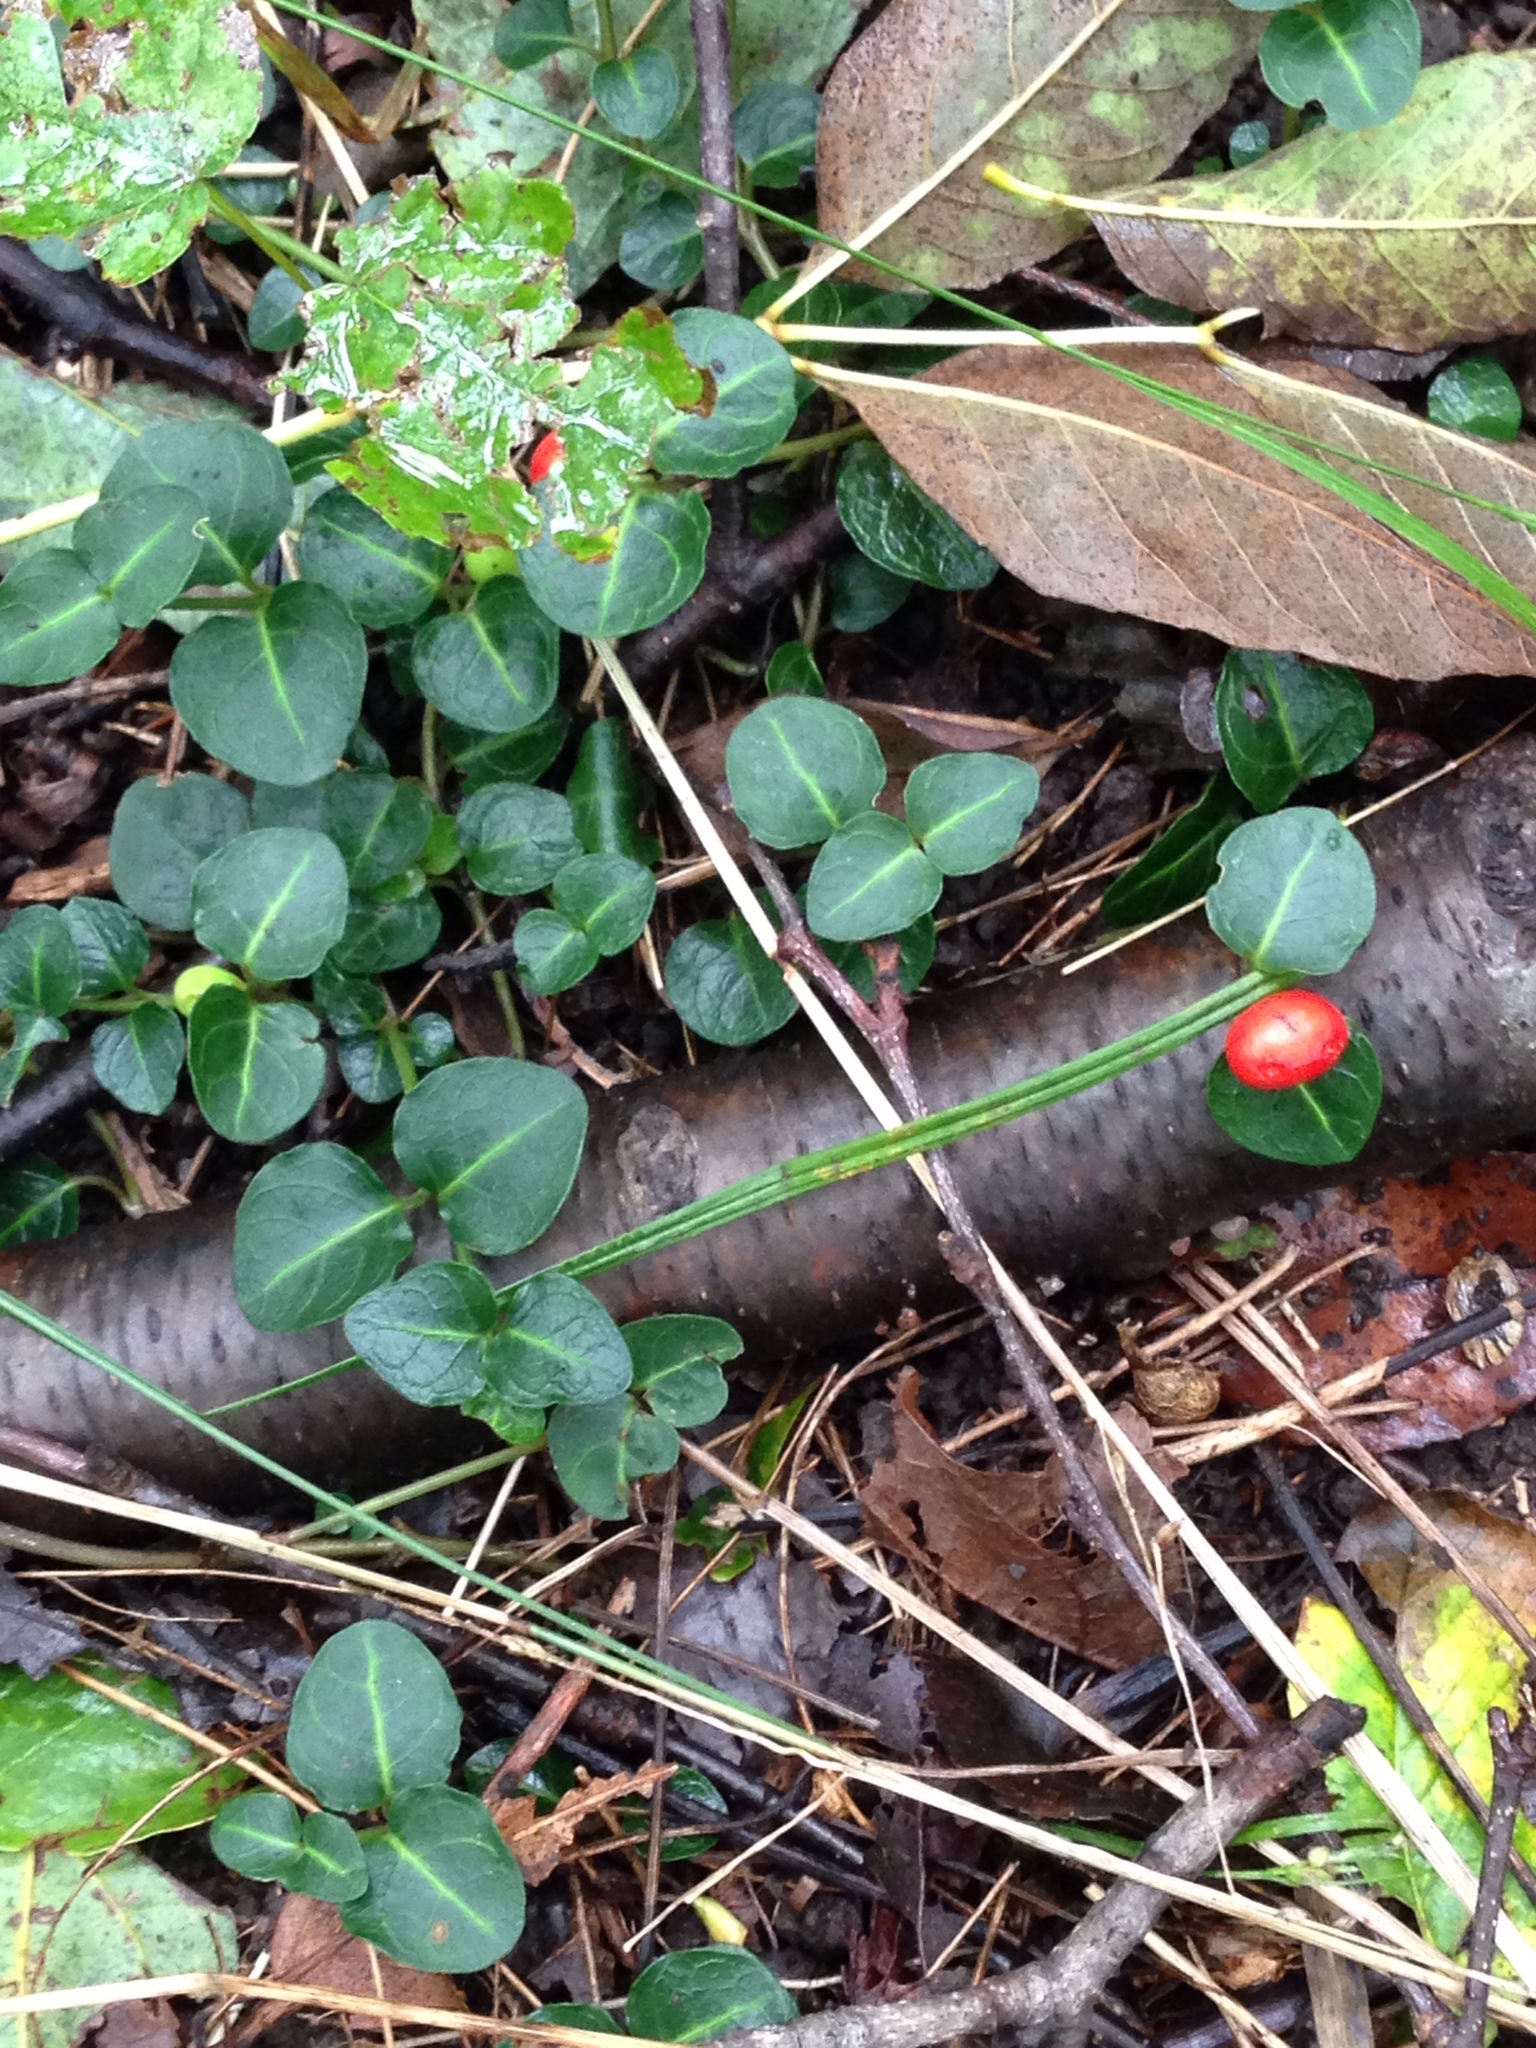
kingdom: Plantae
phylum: Tracheophyta
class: Magnoliopsida
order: Gentianales
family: Rubiaceae
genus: Mitchella
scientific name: Mitchella repens
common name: Partridge-berry
